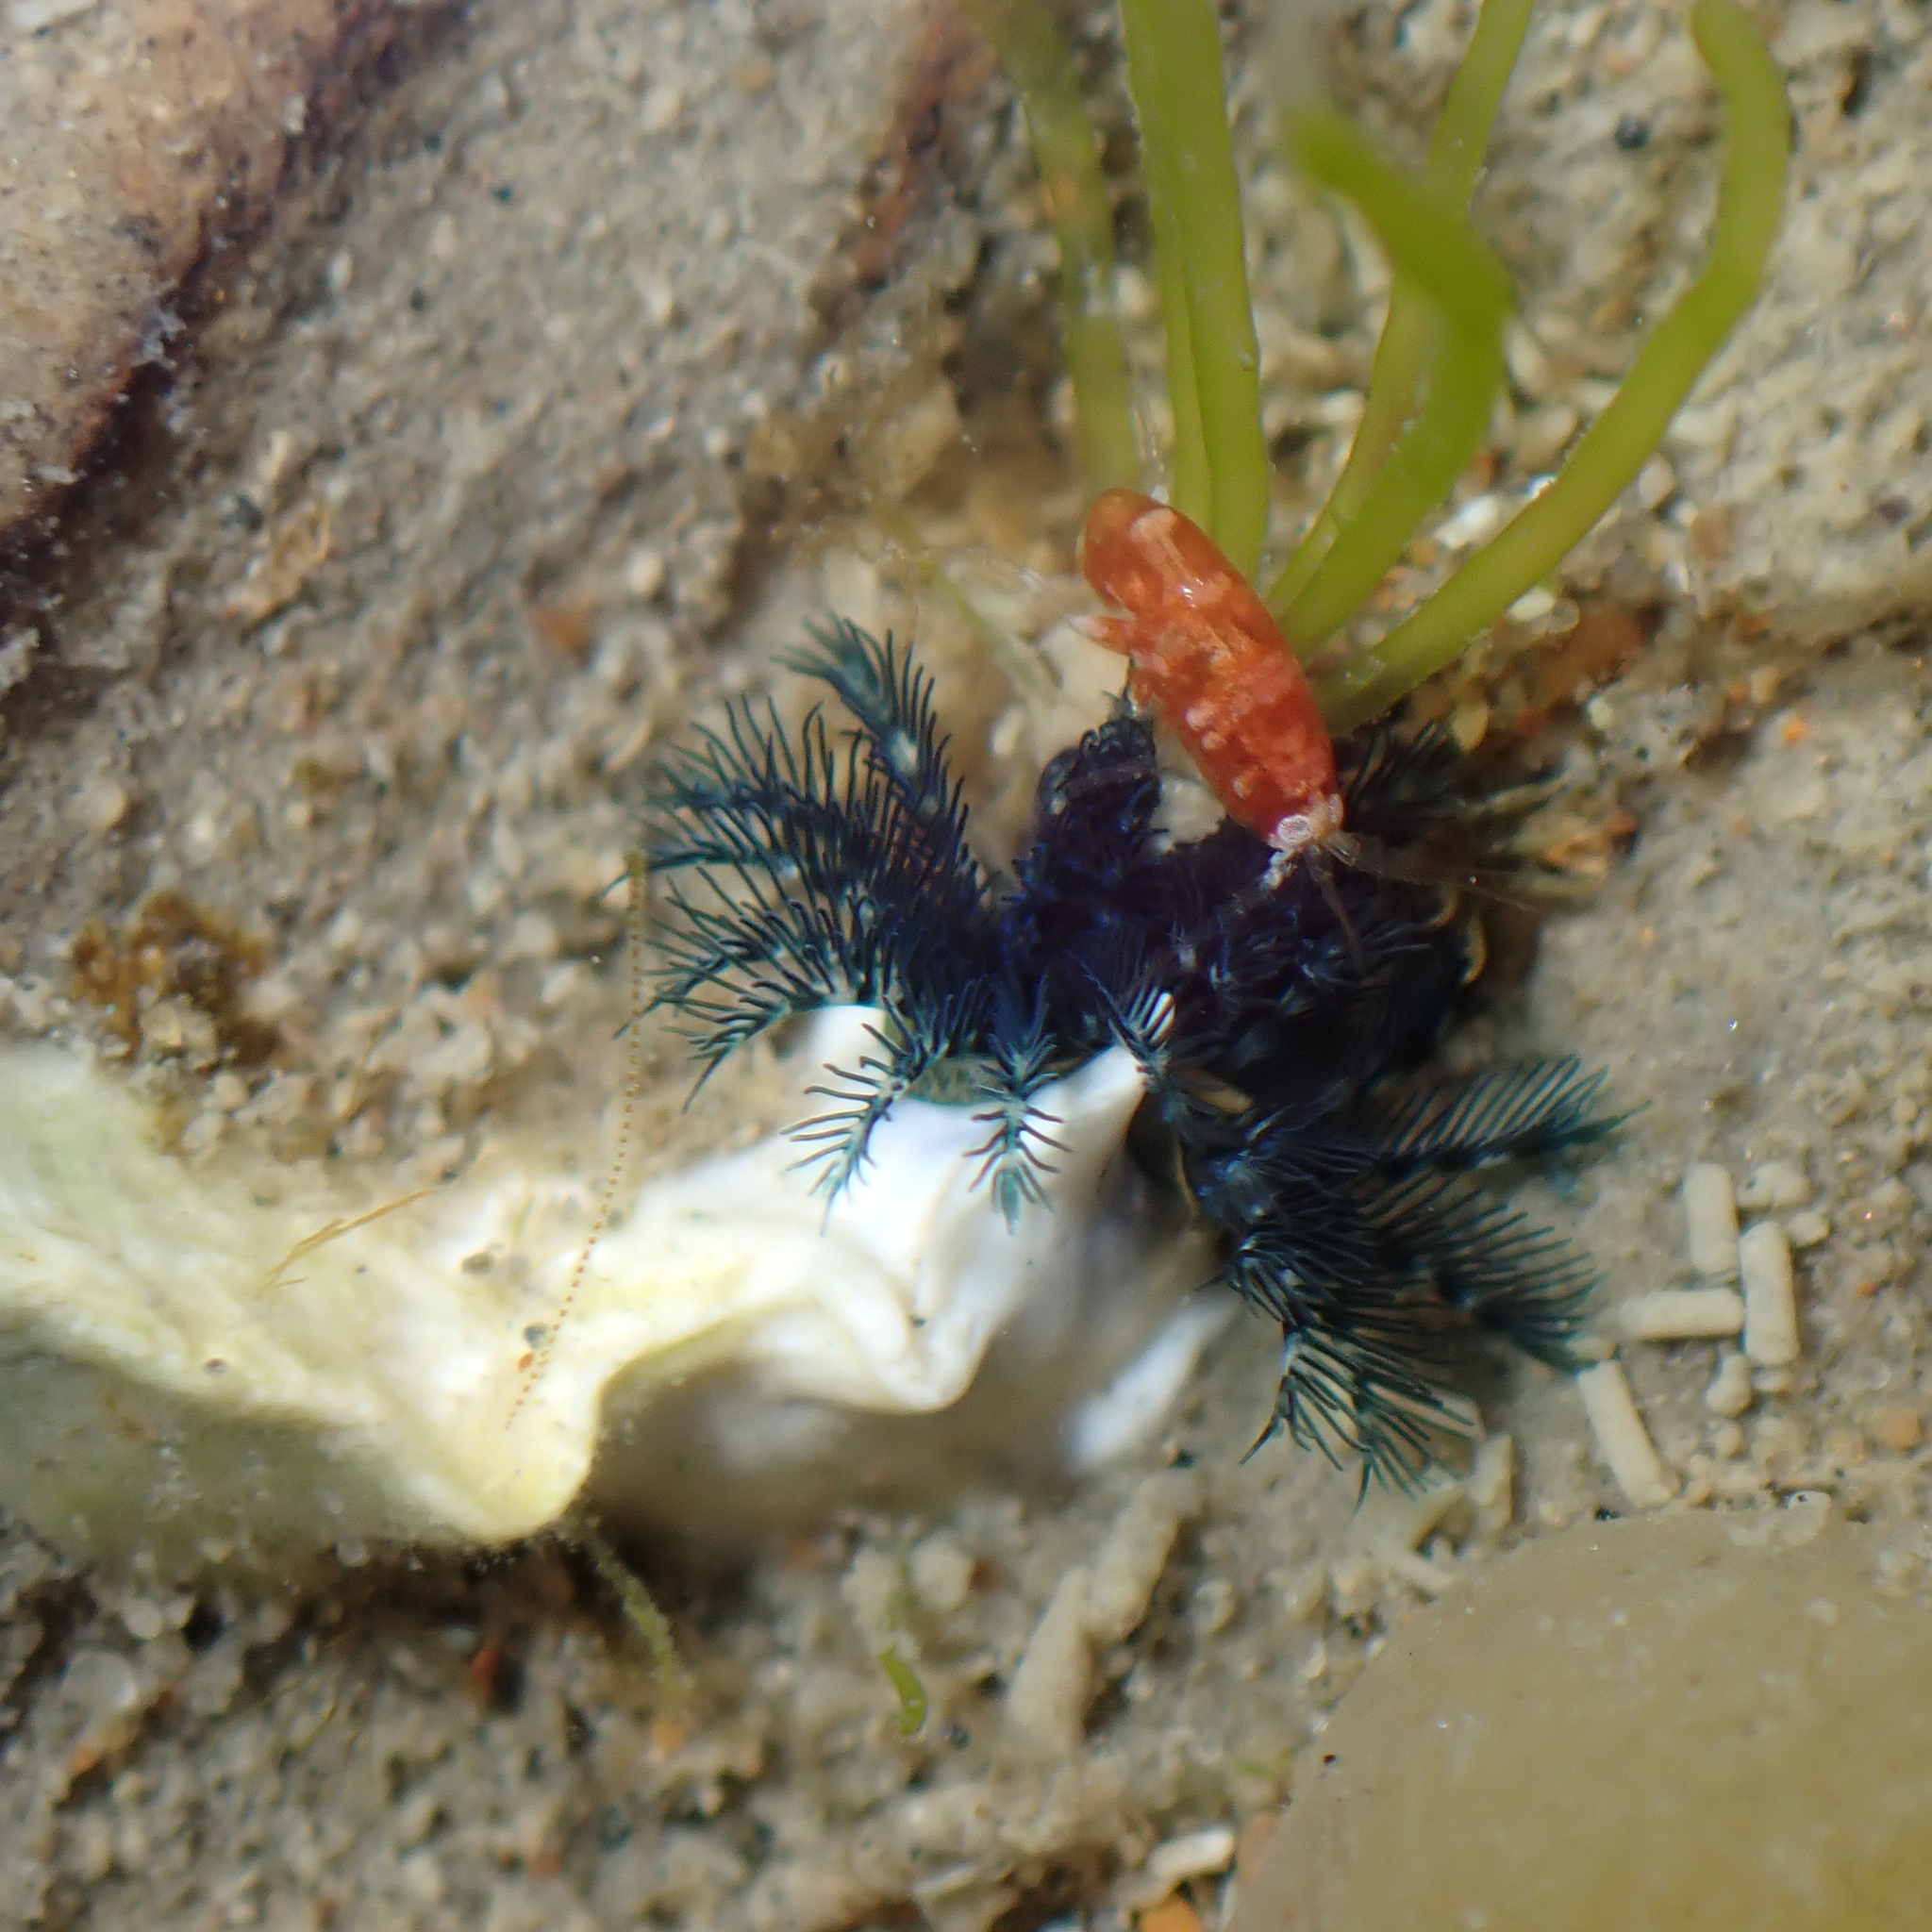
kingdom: Animalia
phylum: Annelida
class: Polychaeta
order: Sabellida
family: Serpulidae
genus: Spirobranchus
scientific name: Spirobranchus cariniferus
